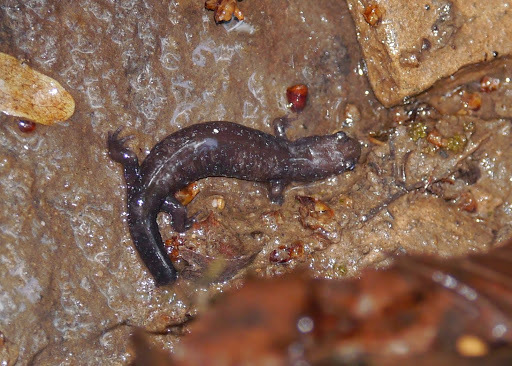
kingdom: Animalia
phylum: Chordata
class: Amphibia
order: Caudata
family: Plethodontidae
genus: Desmognathus
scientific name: Desmognathus fuscus
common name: Northern dusky salamander
